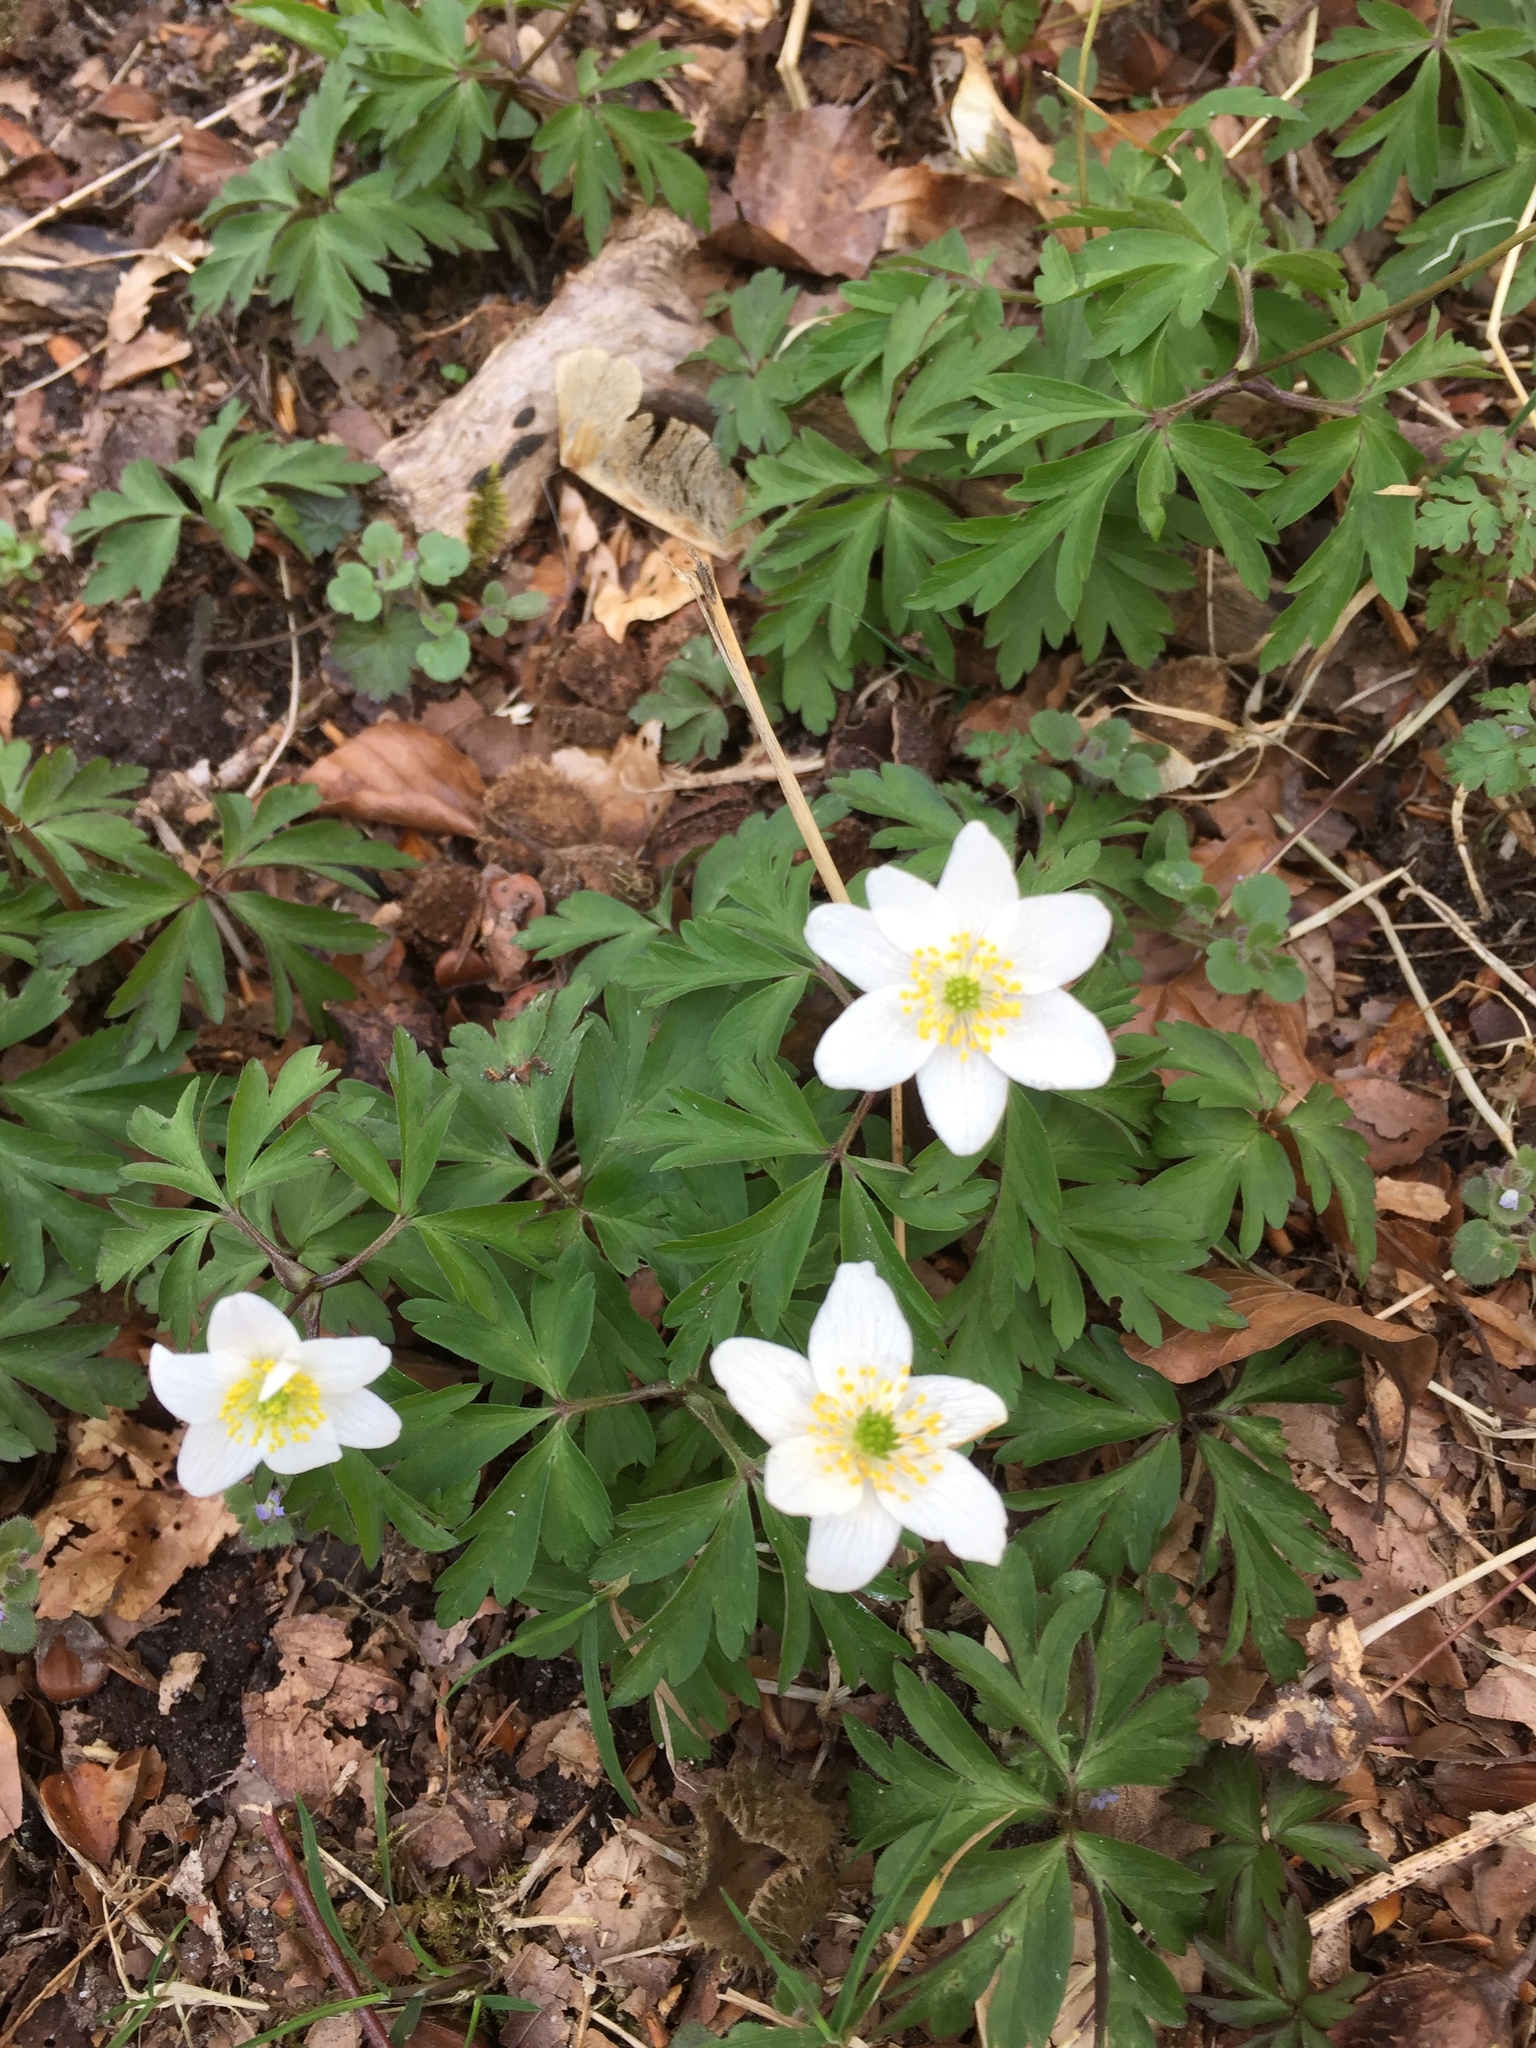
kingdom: Plantae
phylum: Tracheophyta
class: Magnoliopsida
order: Ranunculales
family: Ranunculaceae
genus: Anemone
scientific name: Anemone nemorosa
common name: Wood anemone
